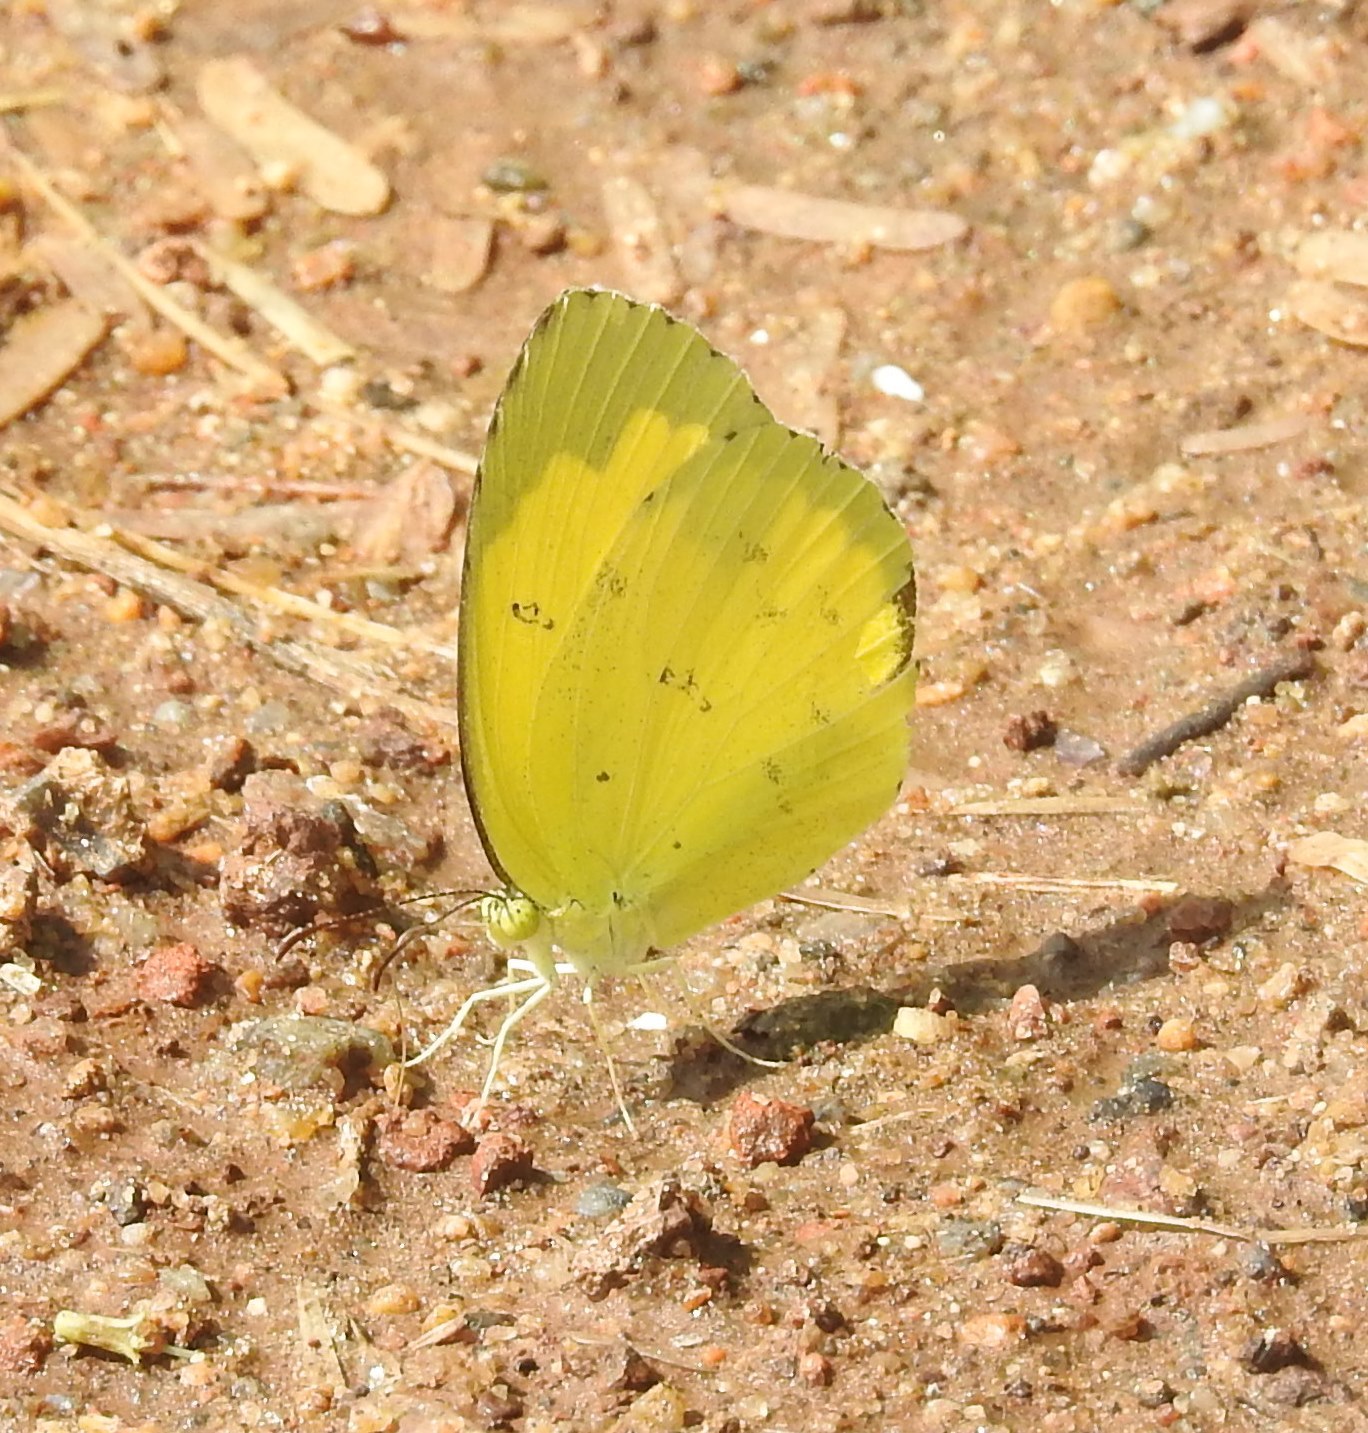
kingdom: Animalia
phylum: Arthropoda
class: Insecta
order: Lepidoptera
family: Pieridae
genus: Eurema
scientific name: Eurema hecabe
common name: Pale grass yellow
